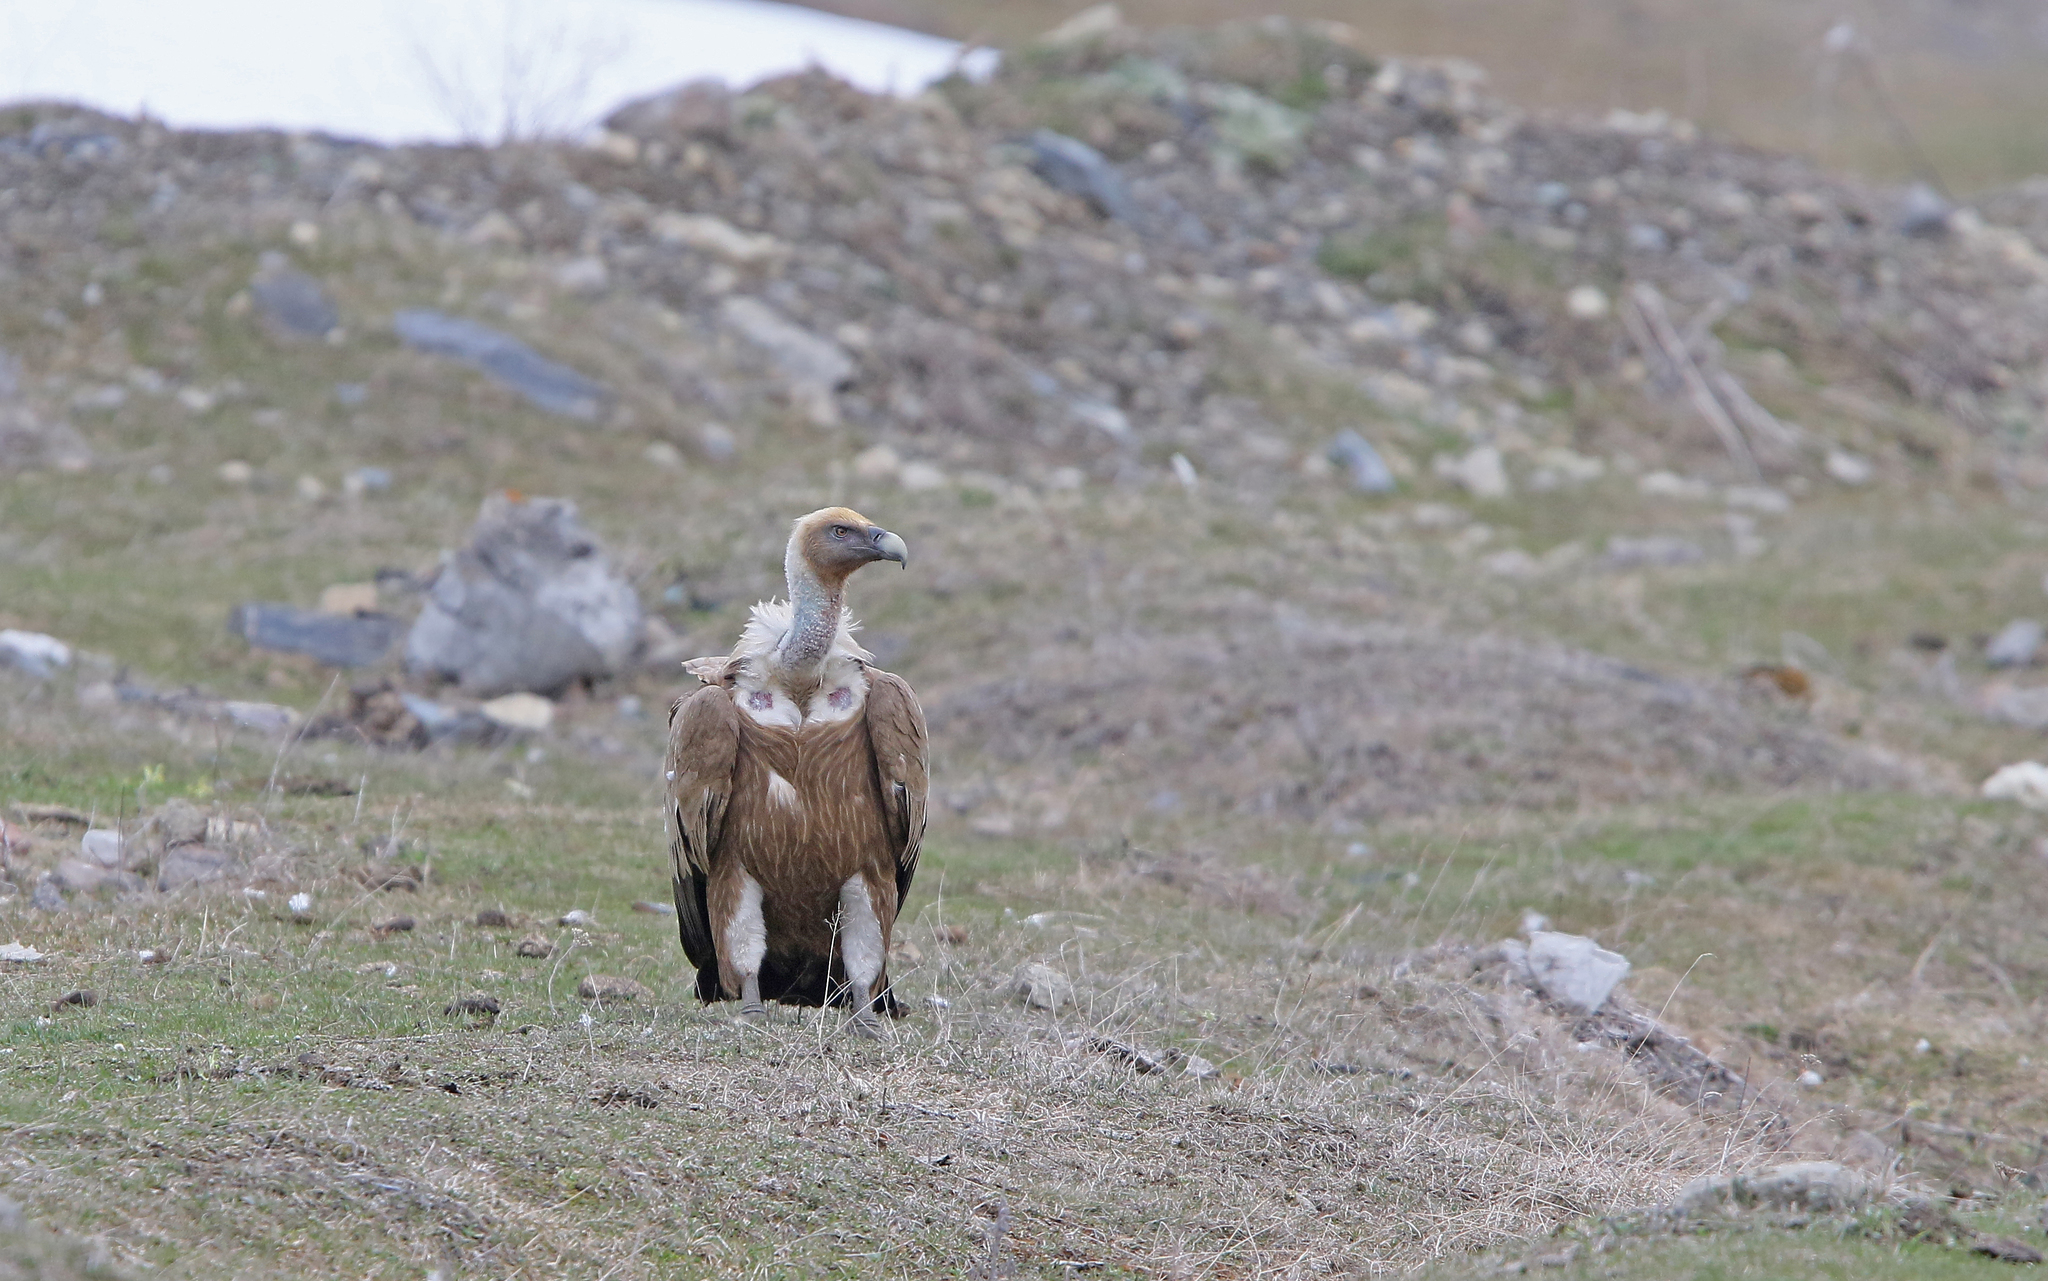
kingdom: Animalia
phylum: Chordata
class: Aves
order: Accipitriformes
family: Accipitridae
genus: Gyps
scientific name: Gyps fulvus
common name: Griffon vulture
